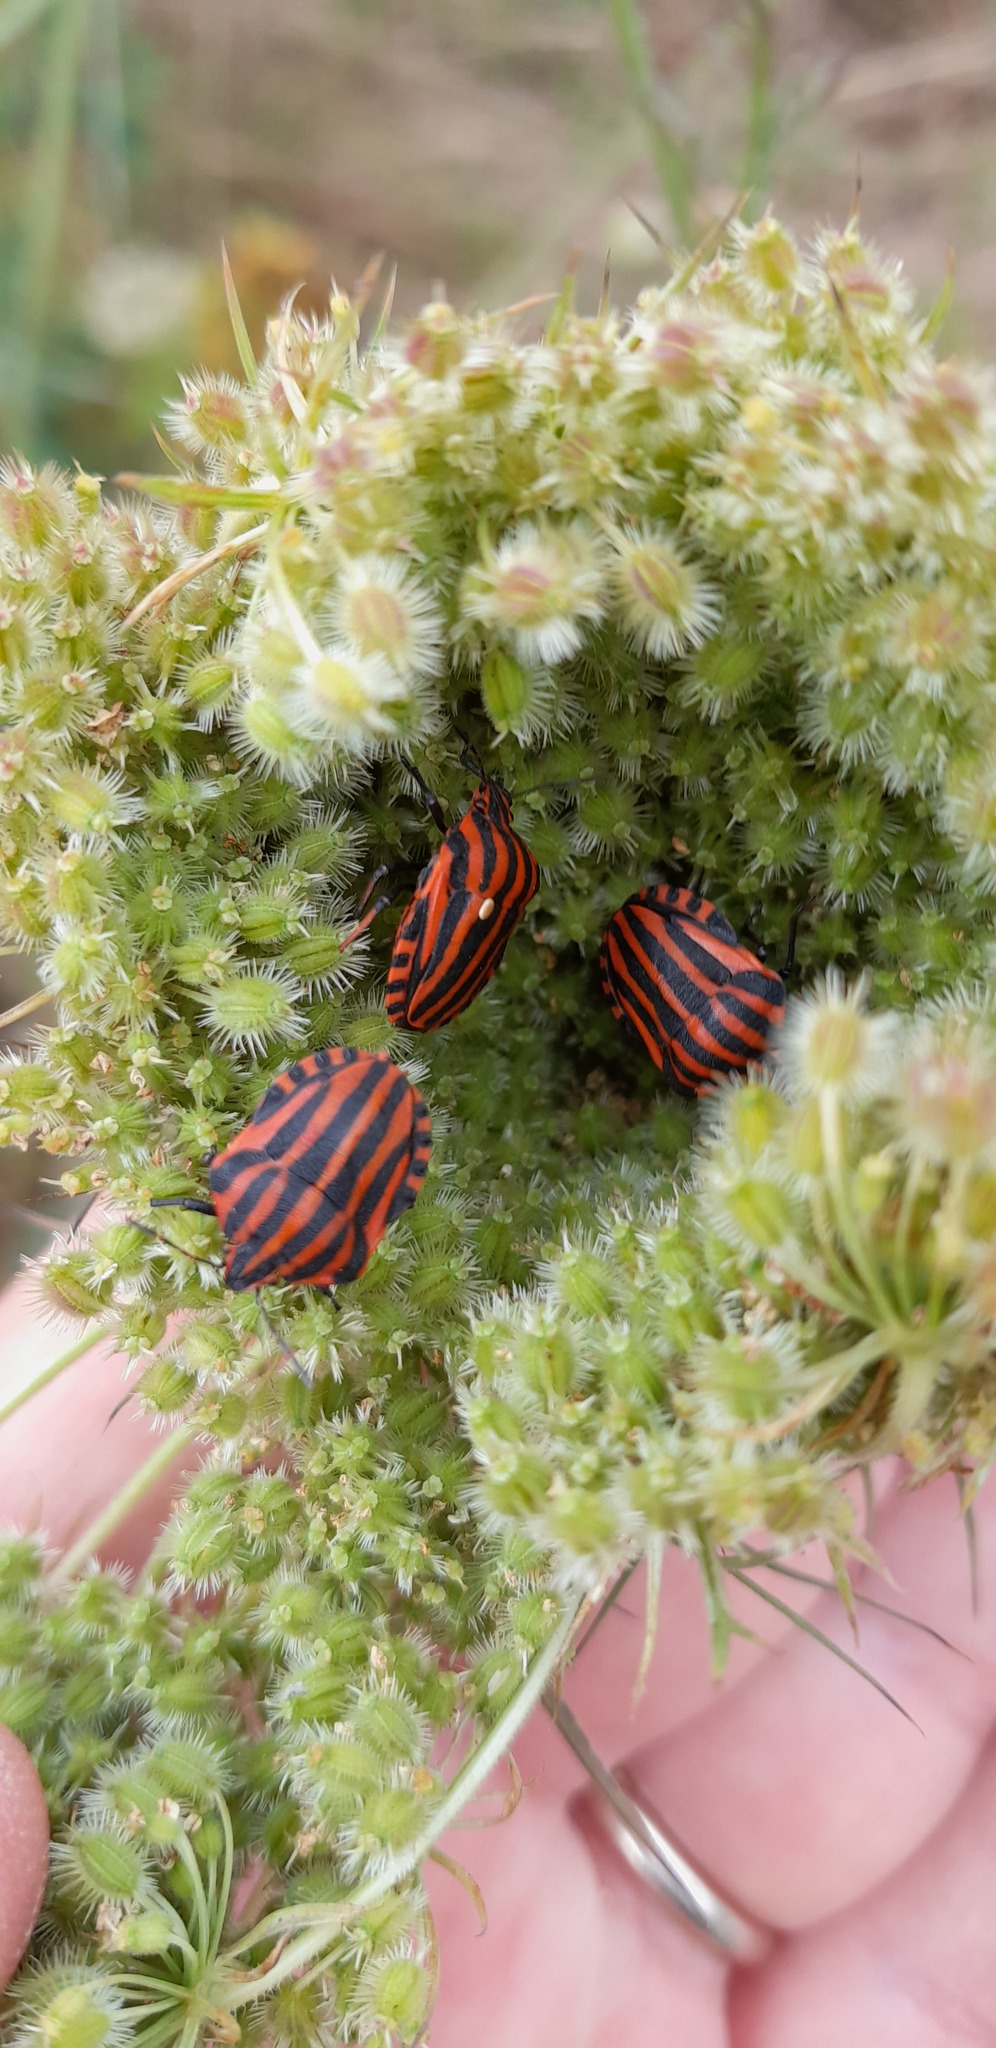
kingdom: Animalia
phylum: Arthropoda
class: Insecta
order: Hemiptera
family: Pentatomidae
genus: Graphosoma
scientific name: Graphosoma italicum
